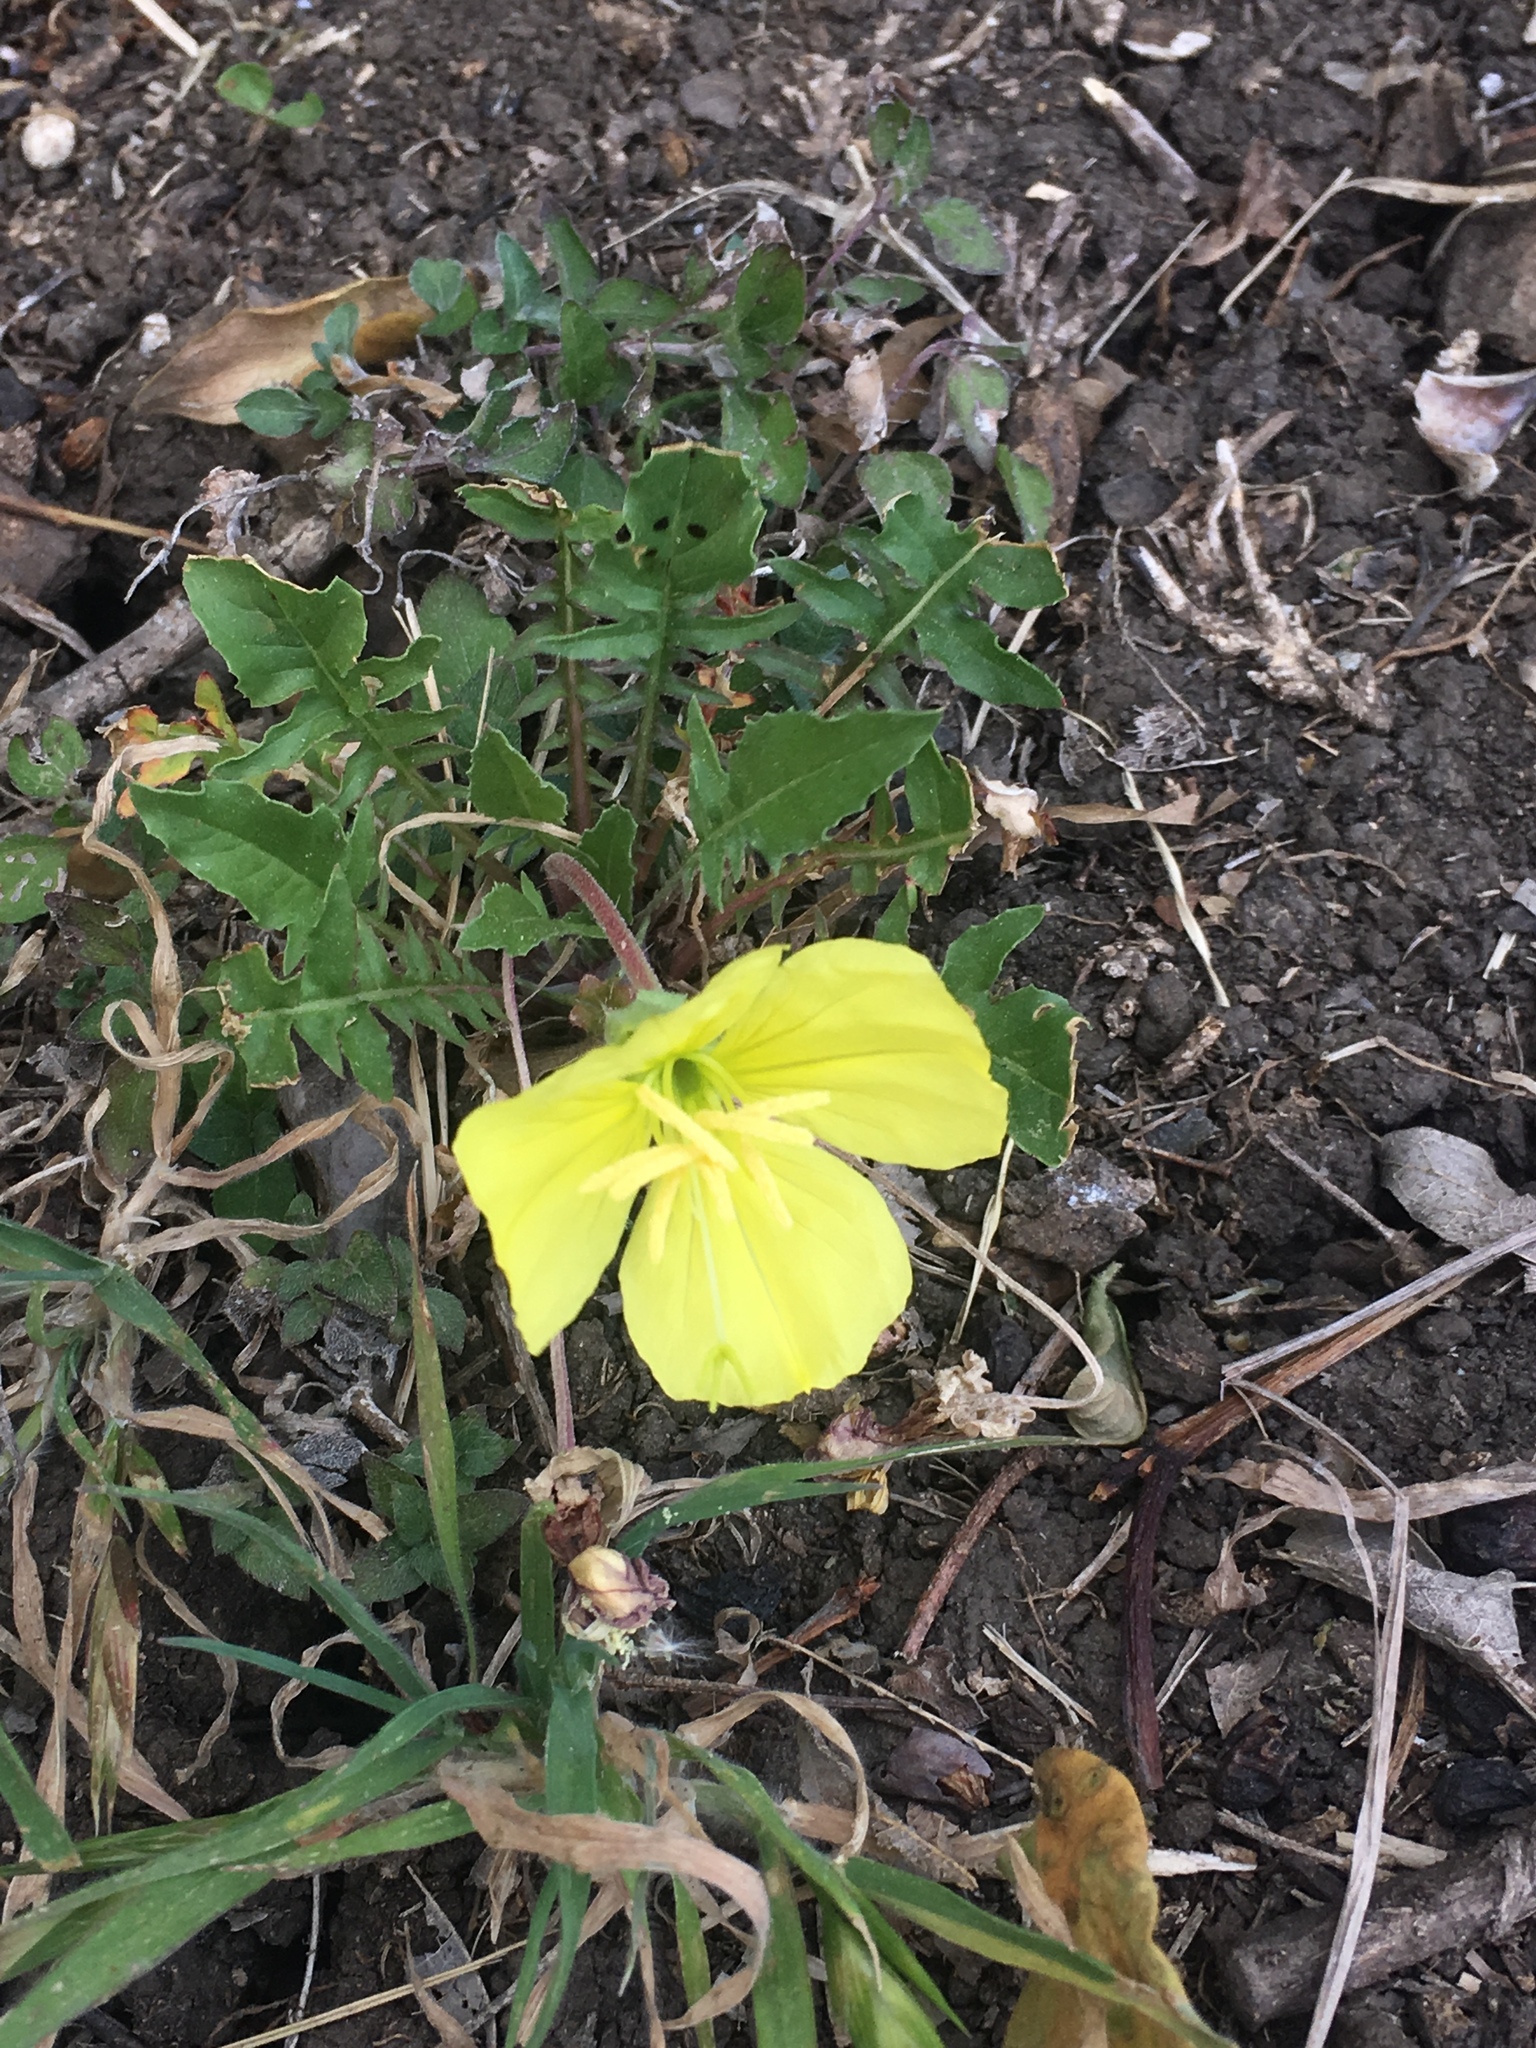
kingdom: Plantae
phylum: Tracheophyta
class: Magnoliopsida
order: Myrtales
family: Onagraceae
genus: Oenothera
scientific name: Oenothera triloba
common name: Sessile evening-primrose
